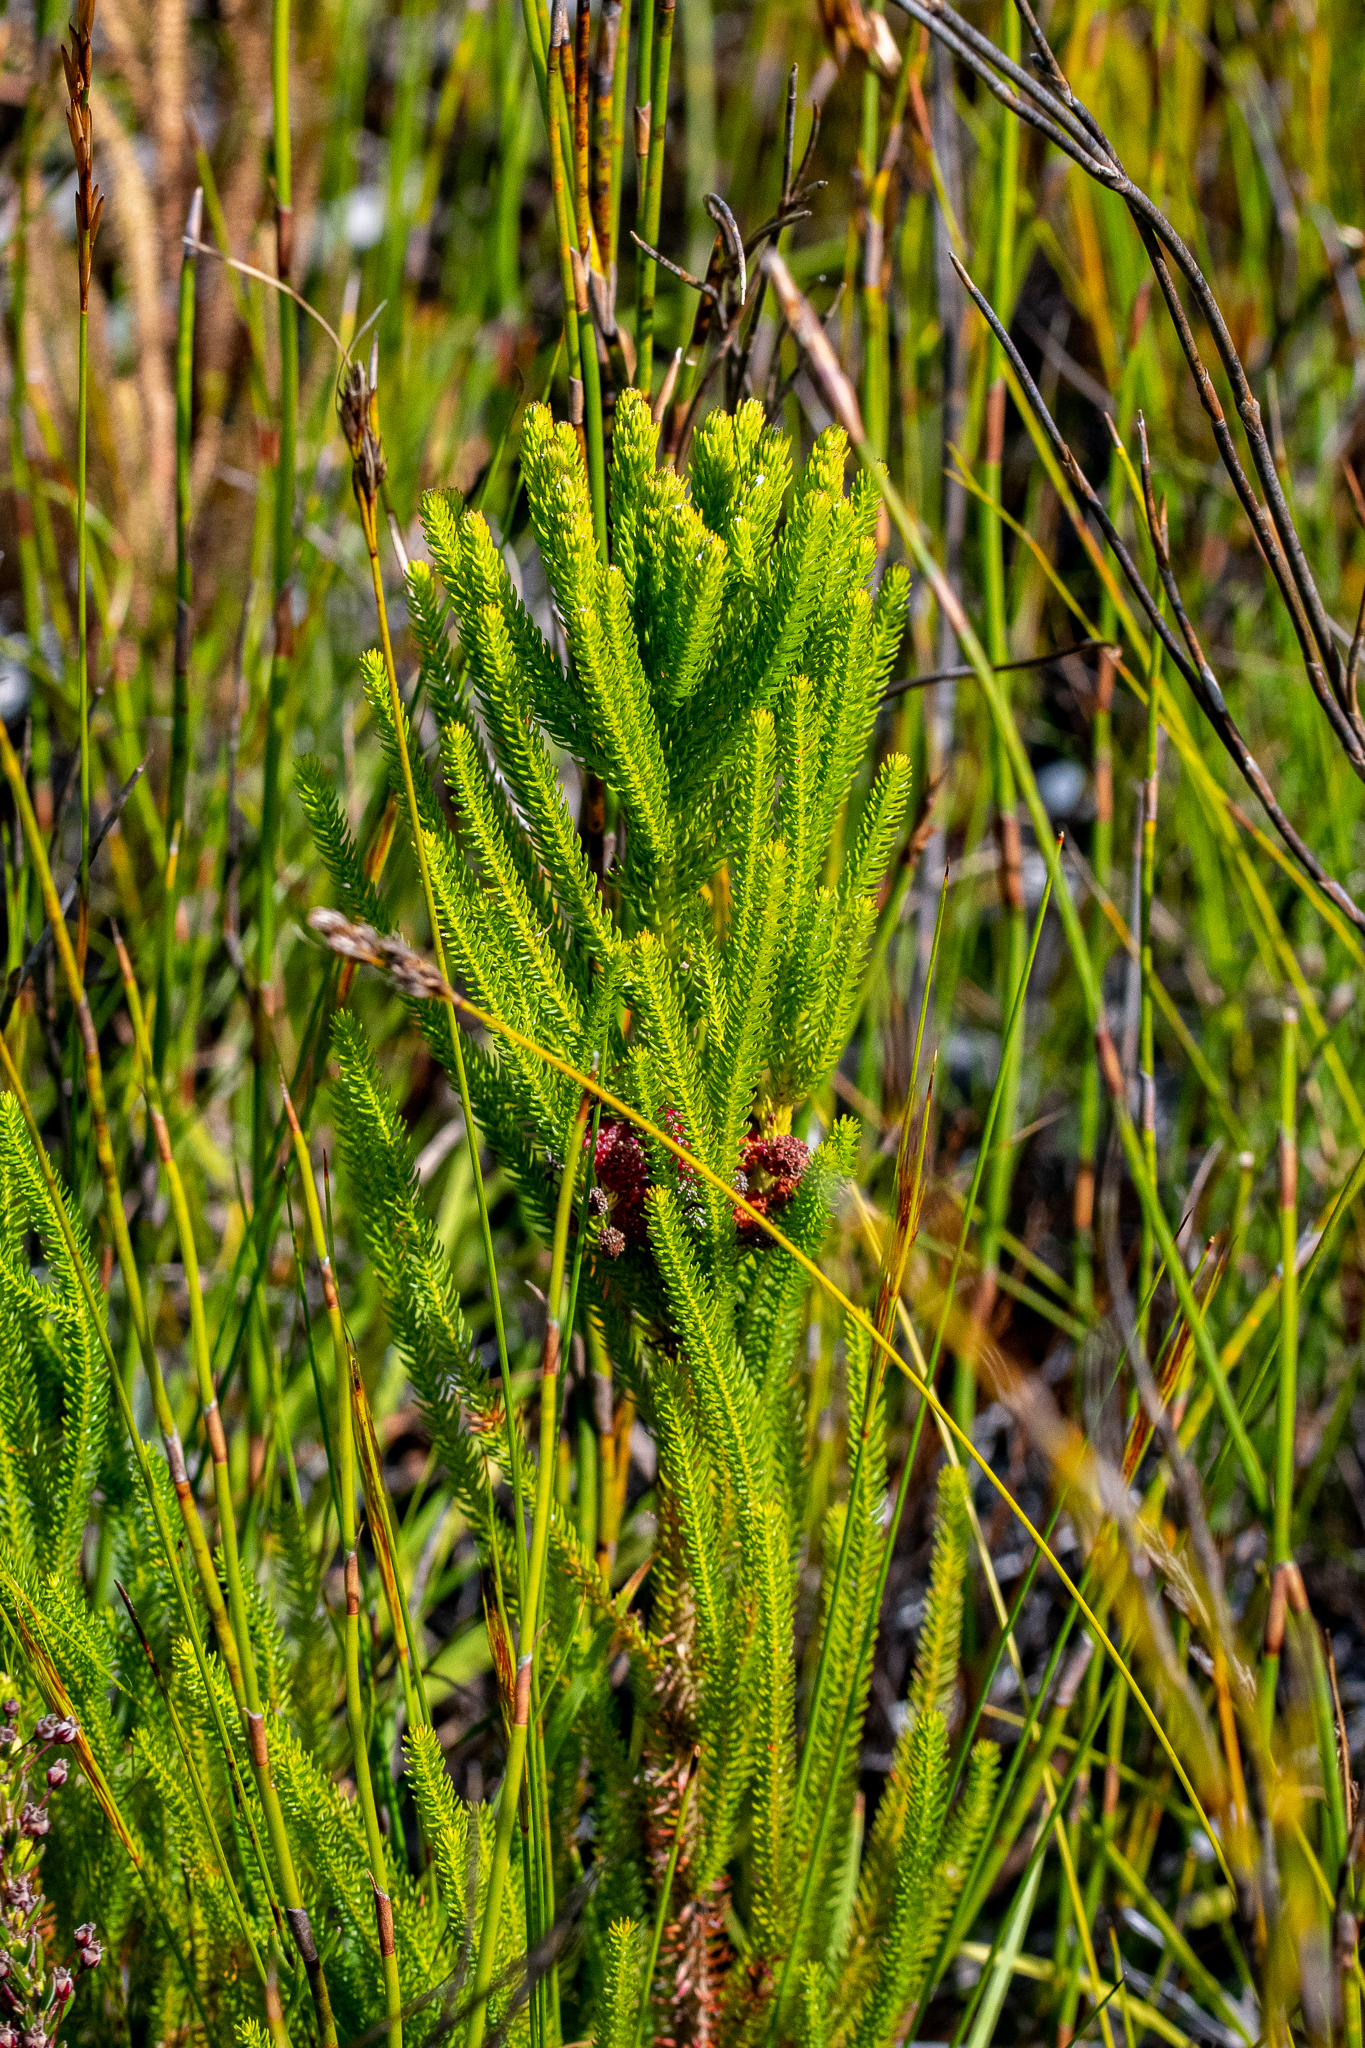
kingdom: Plantae
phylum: Tracheophyta
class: Magnoliopsida
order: Bruniales
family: Bruniaceae
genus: Berzelia
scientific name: Berzelia abrotanoides
